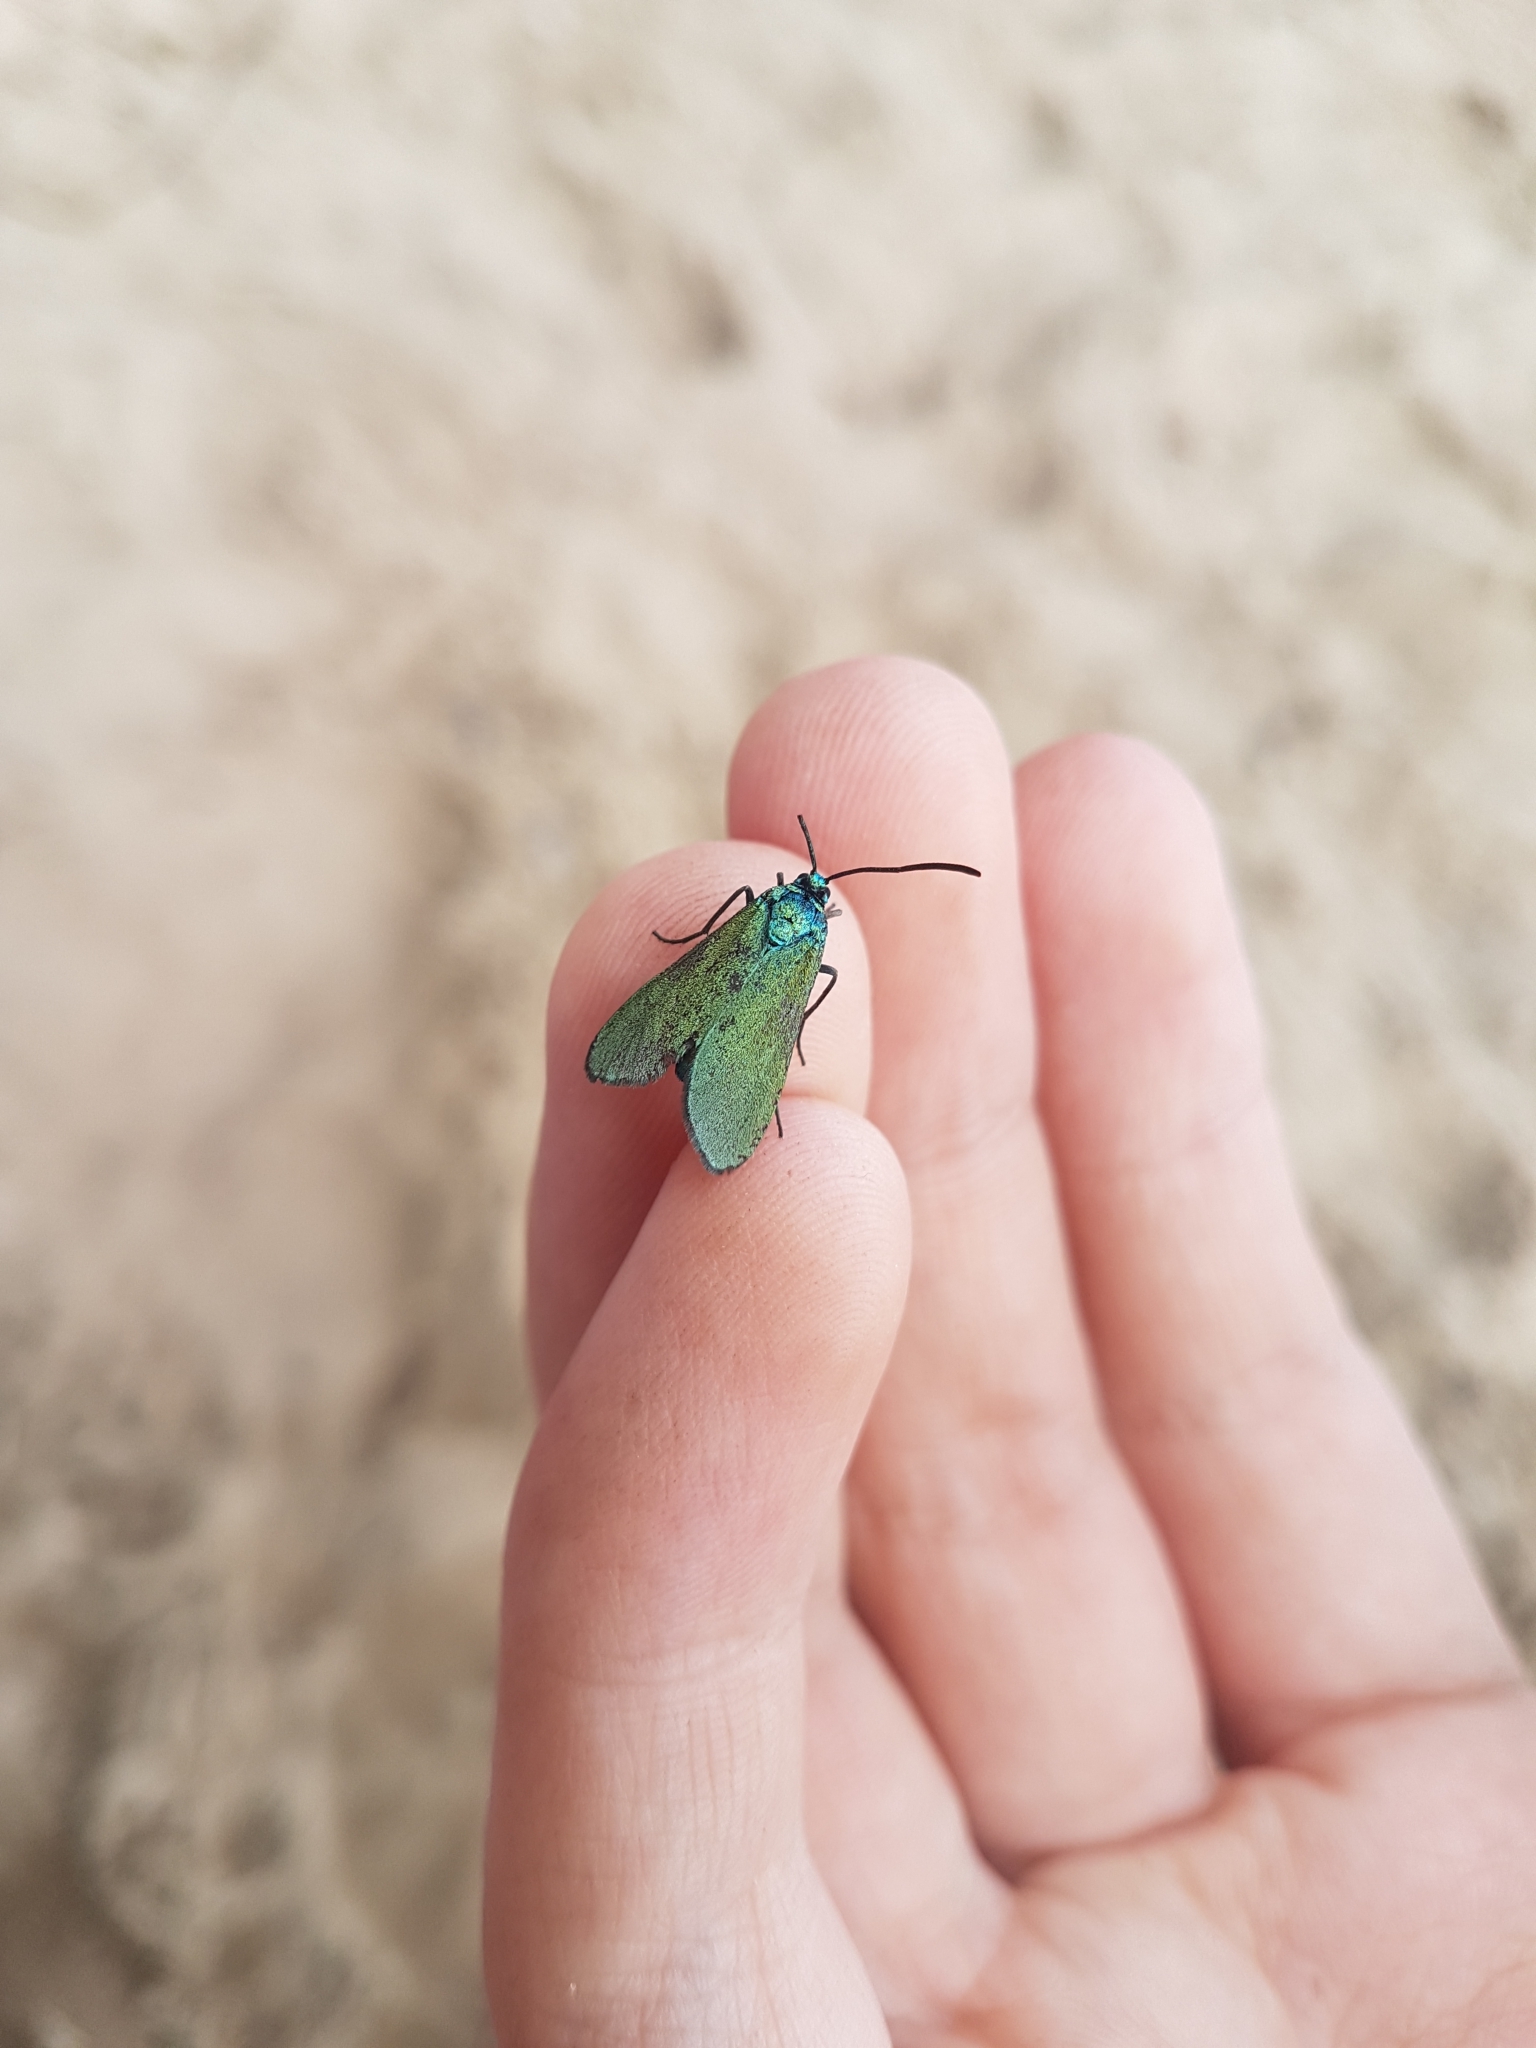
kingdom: Animalia
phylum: Arthropoda
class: Insecta
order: Lepidoptera
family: Zygaenidae
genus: Adscita
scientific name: Adscita statices
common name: Forester
